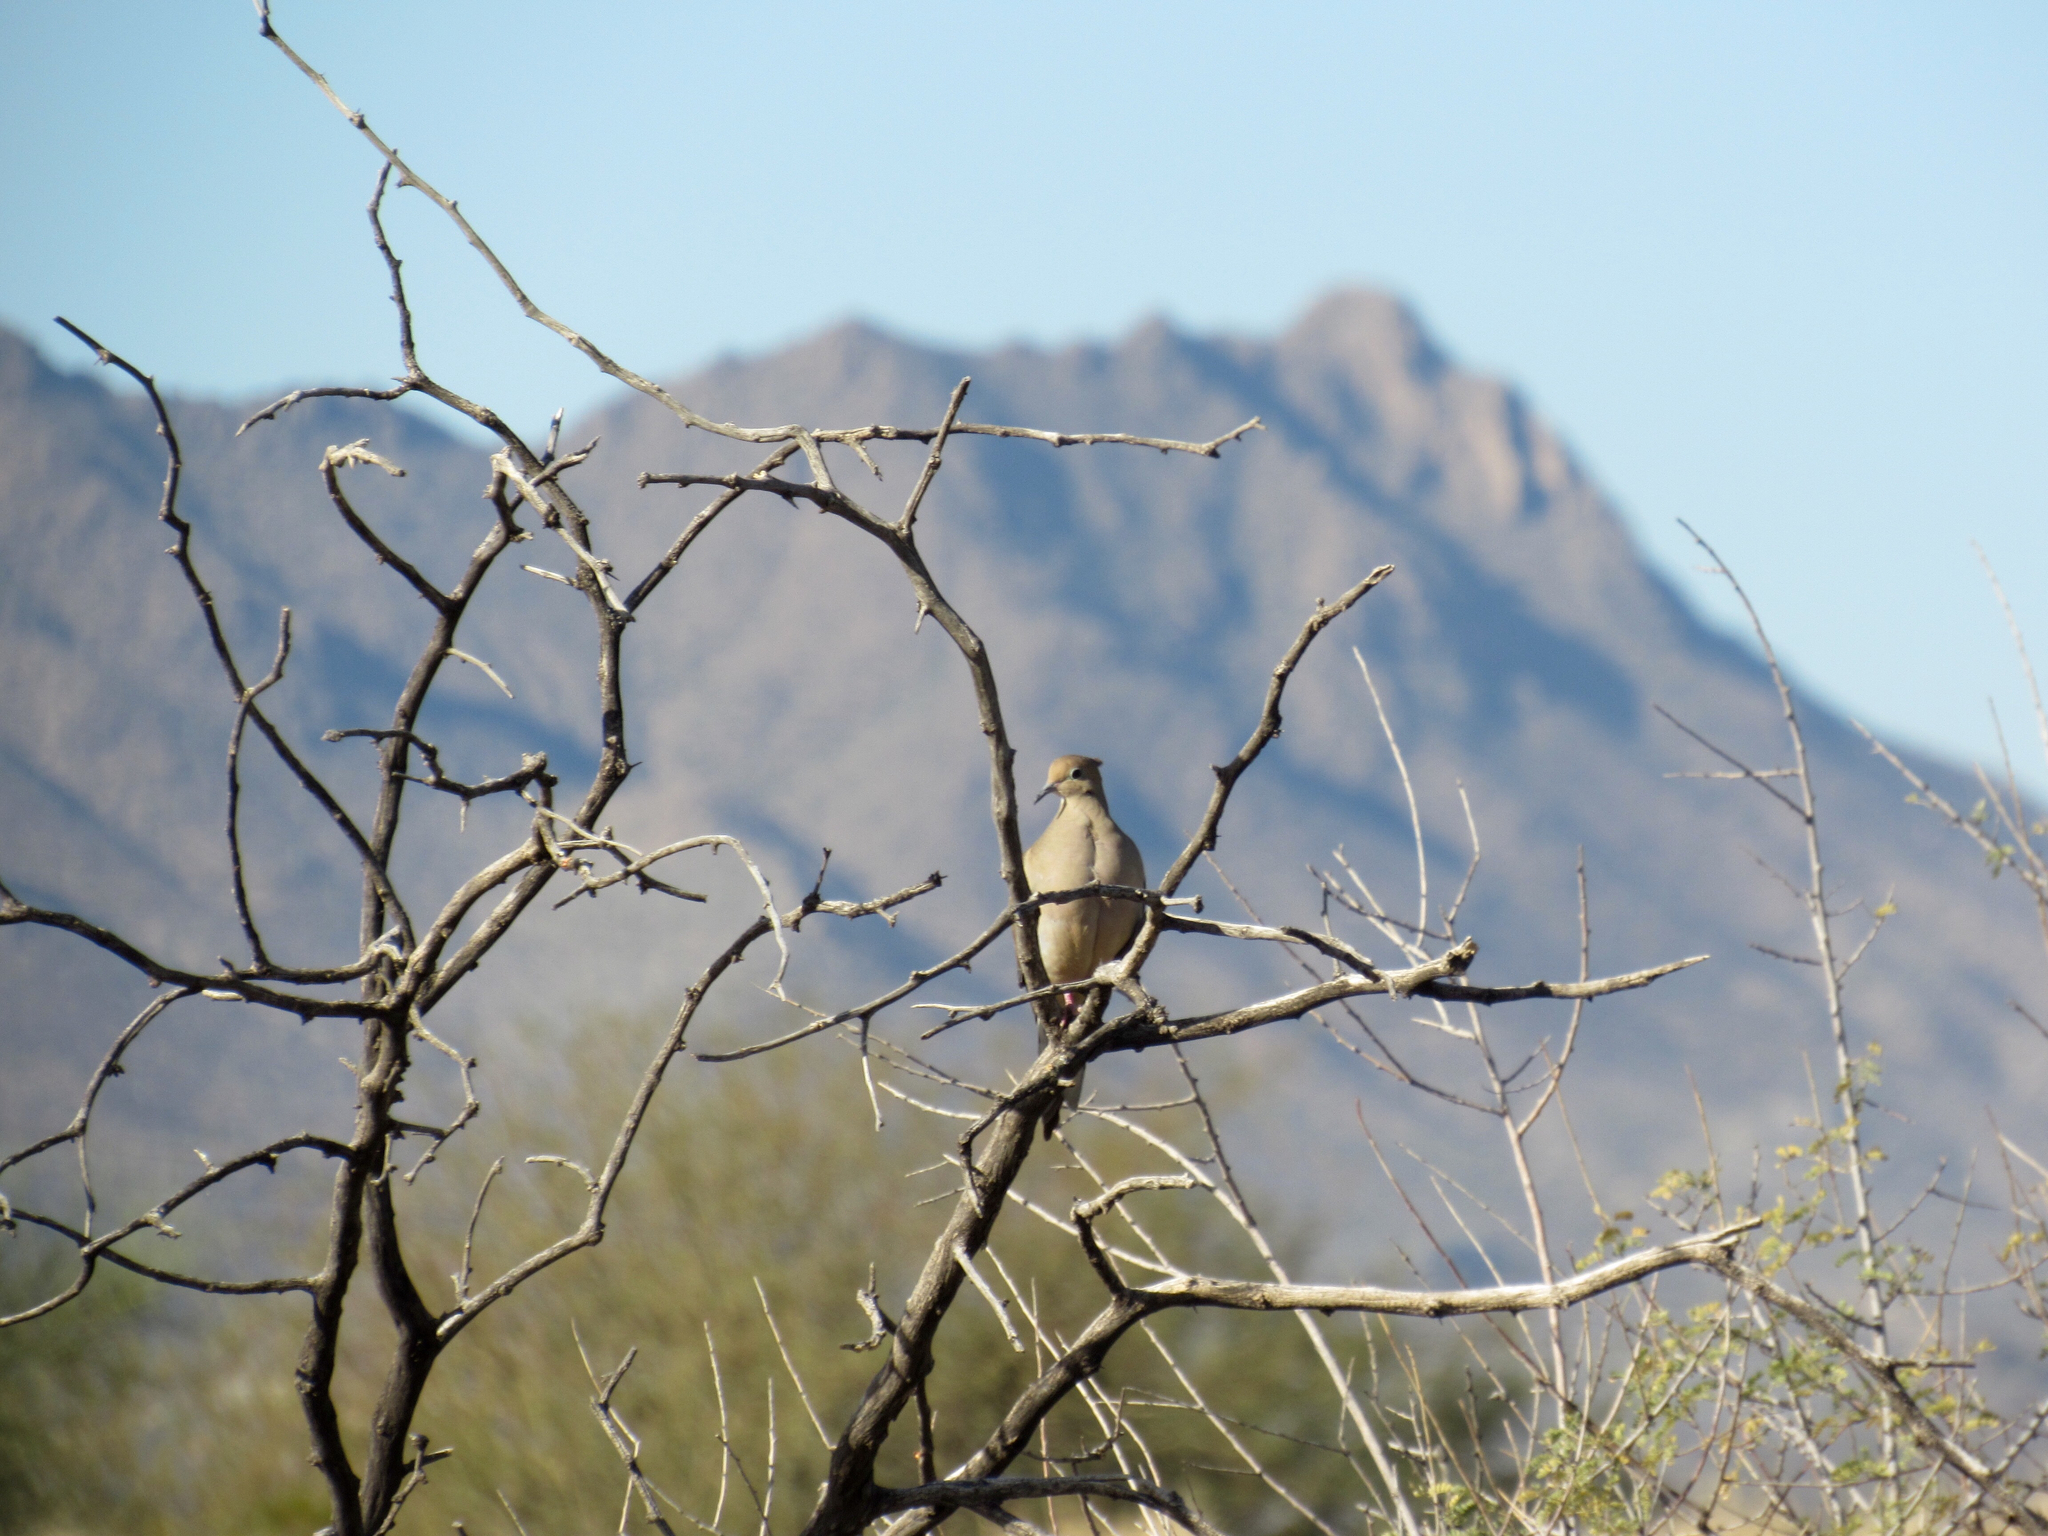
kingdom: Animalia
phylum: Chordata
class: Aves
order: Columbiformes
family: Columbidae
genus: Zenaida
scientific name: Zenaida macroura
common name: Mourning dove
